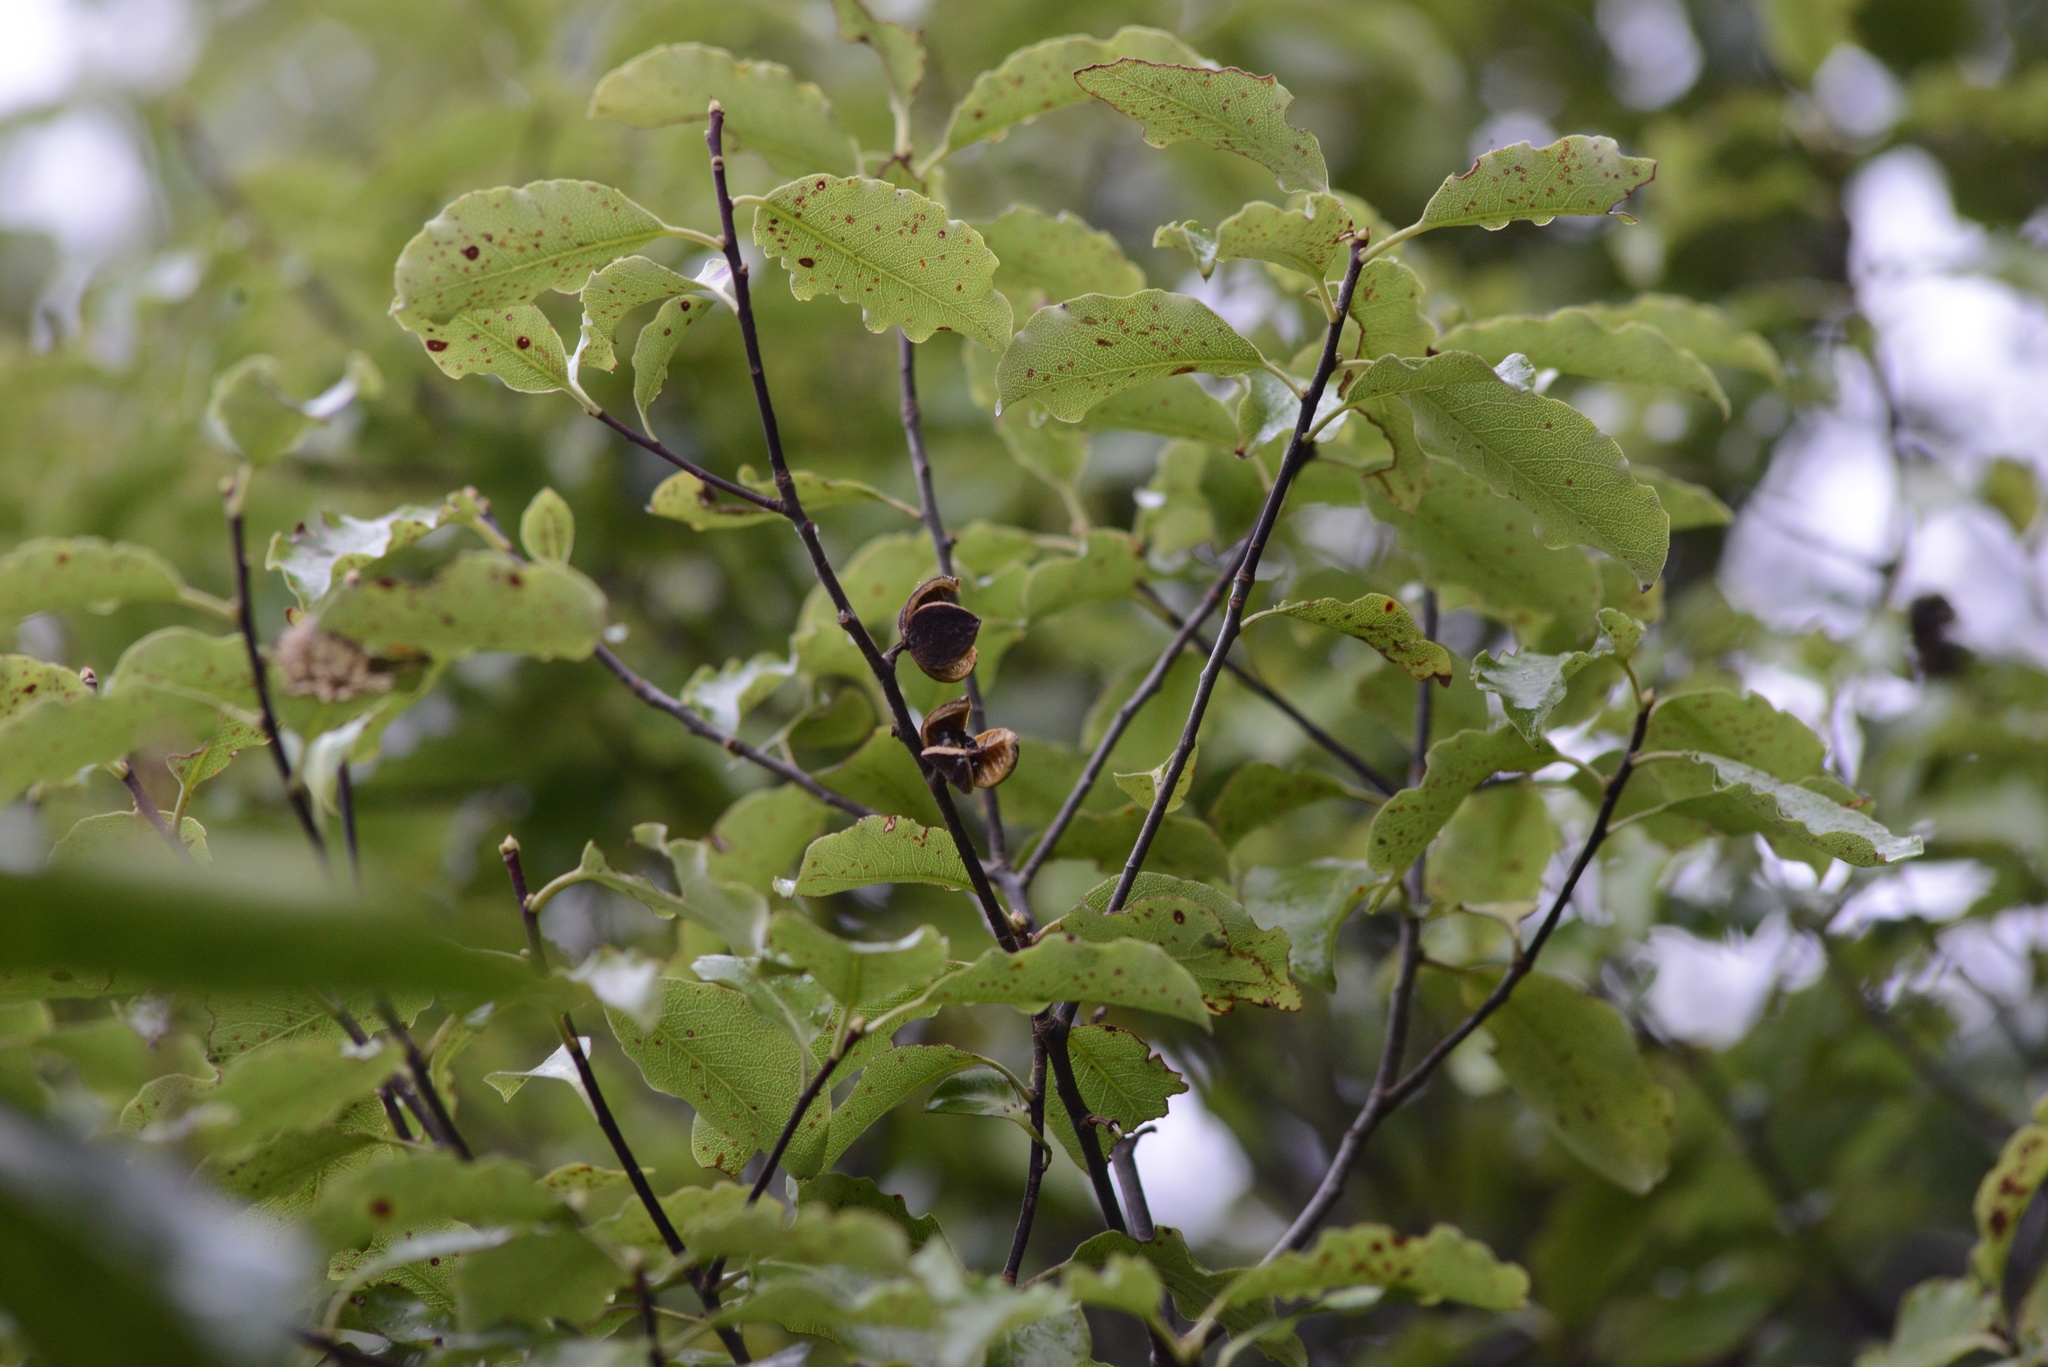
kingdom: Plantae
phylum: Tracheophyta
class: Magnoliopsida
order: Apiales
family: Pittosporaceae
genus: Pittosporum
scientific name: Pittosporum tenuifolium
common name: Kohuhu
